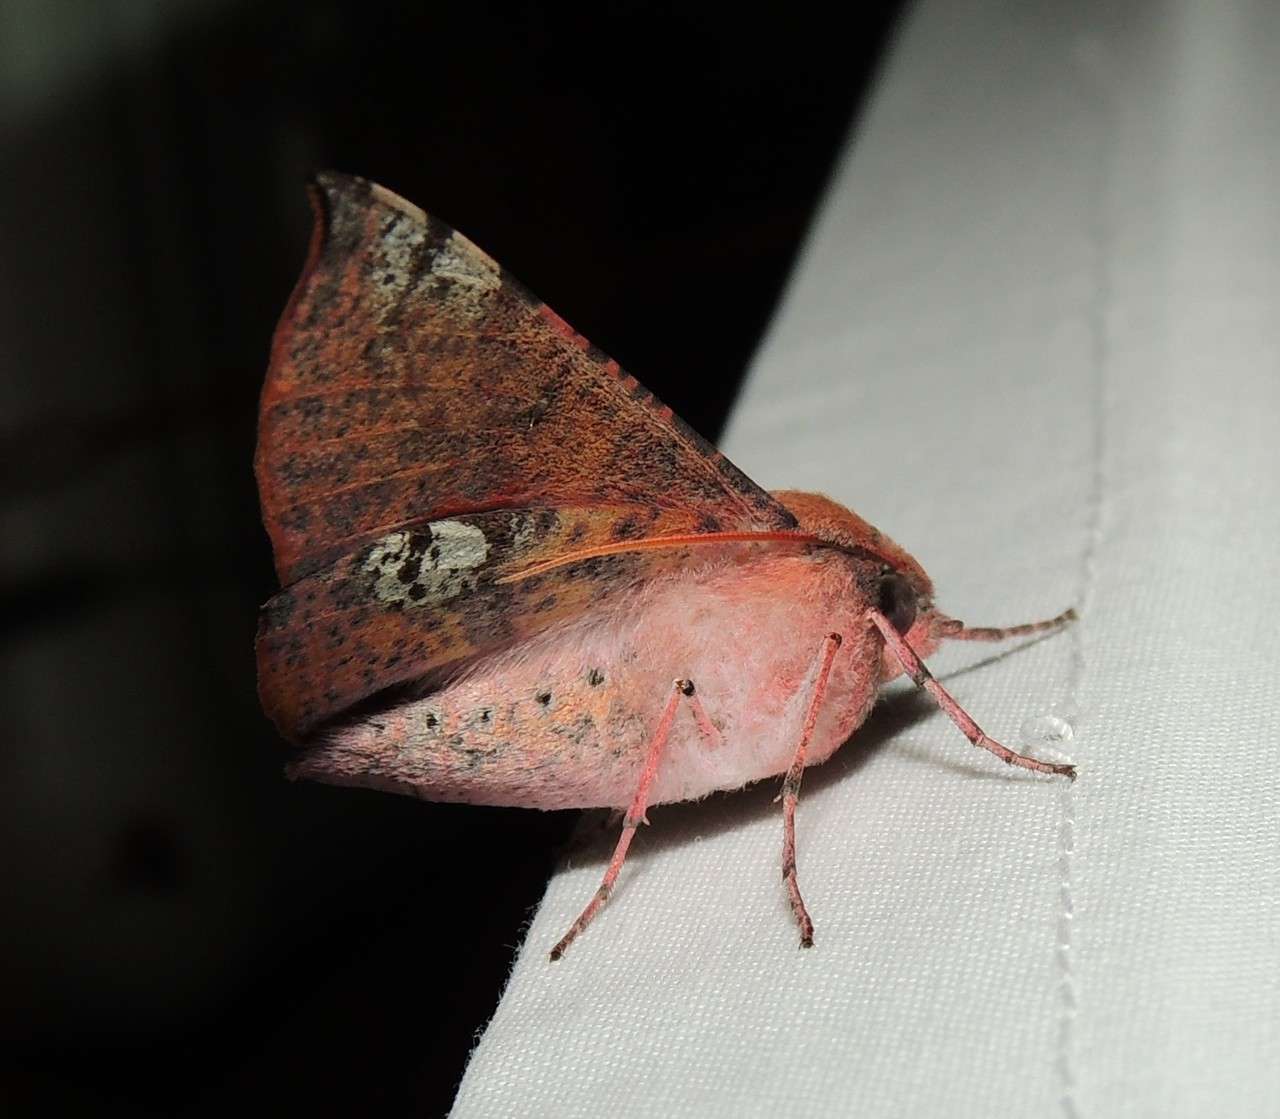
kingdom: Animalia
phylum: Arthropoda
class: Insecta
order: Lepidoptera
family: Geometridae
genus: Oenochroma
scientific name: Oenochroma vinaria
